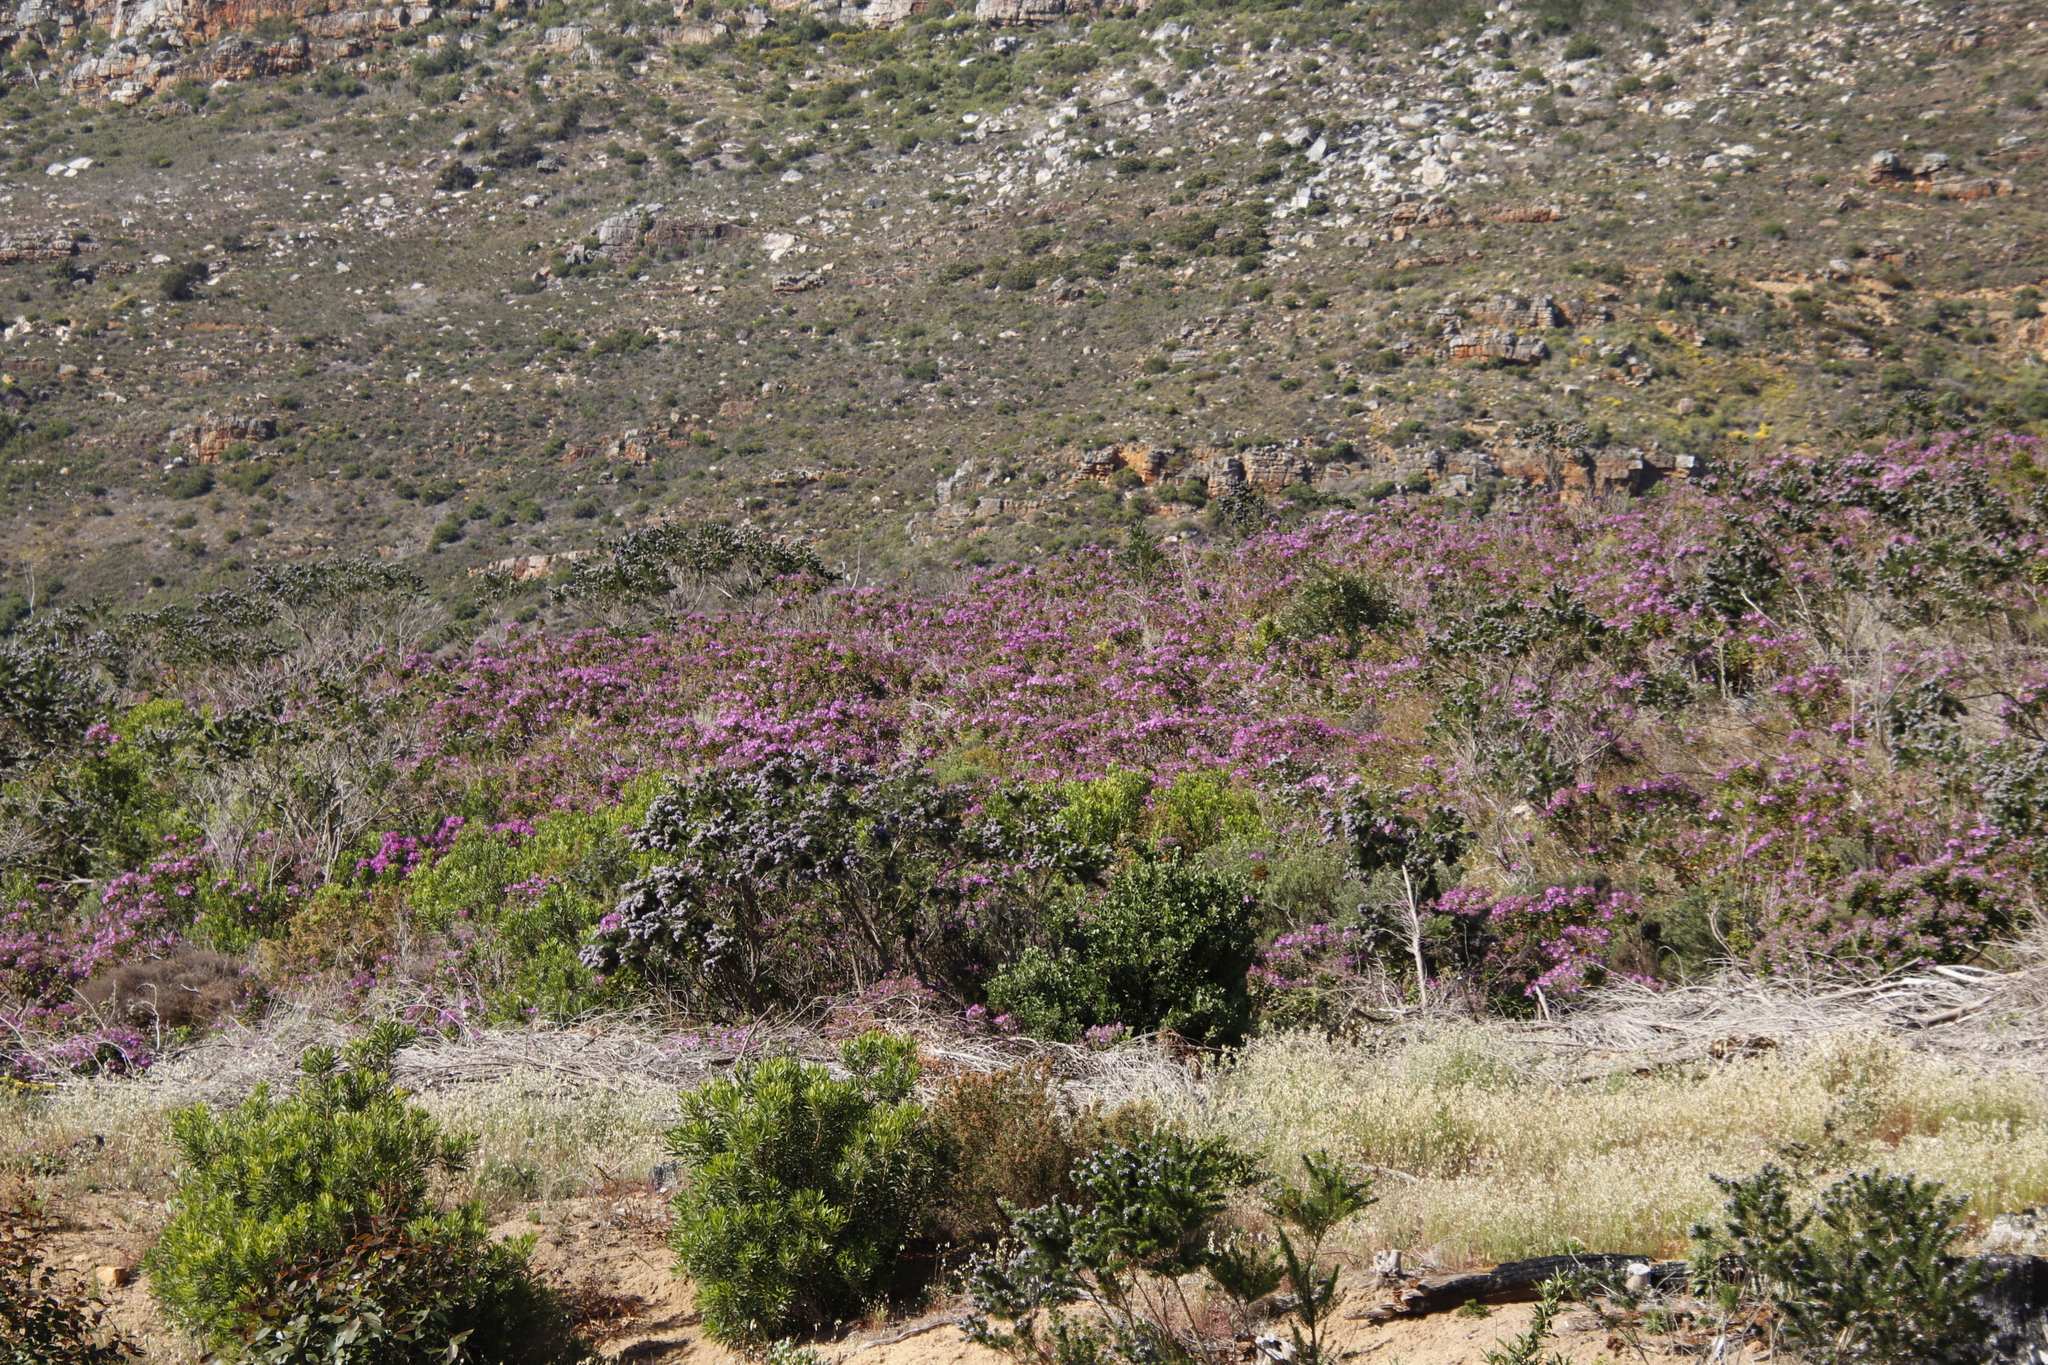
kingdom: Plantae
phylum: Tracheophyta
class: Magnoliopsida
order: Geraniales
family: Geraniaceae
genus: Pelargonium
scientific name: Pelargonium cucullatum
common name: Tree pelargonium
